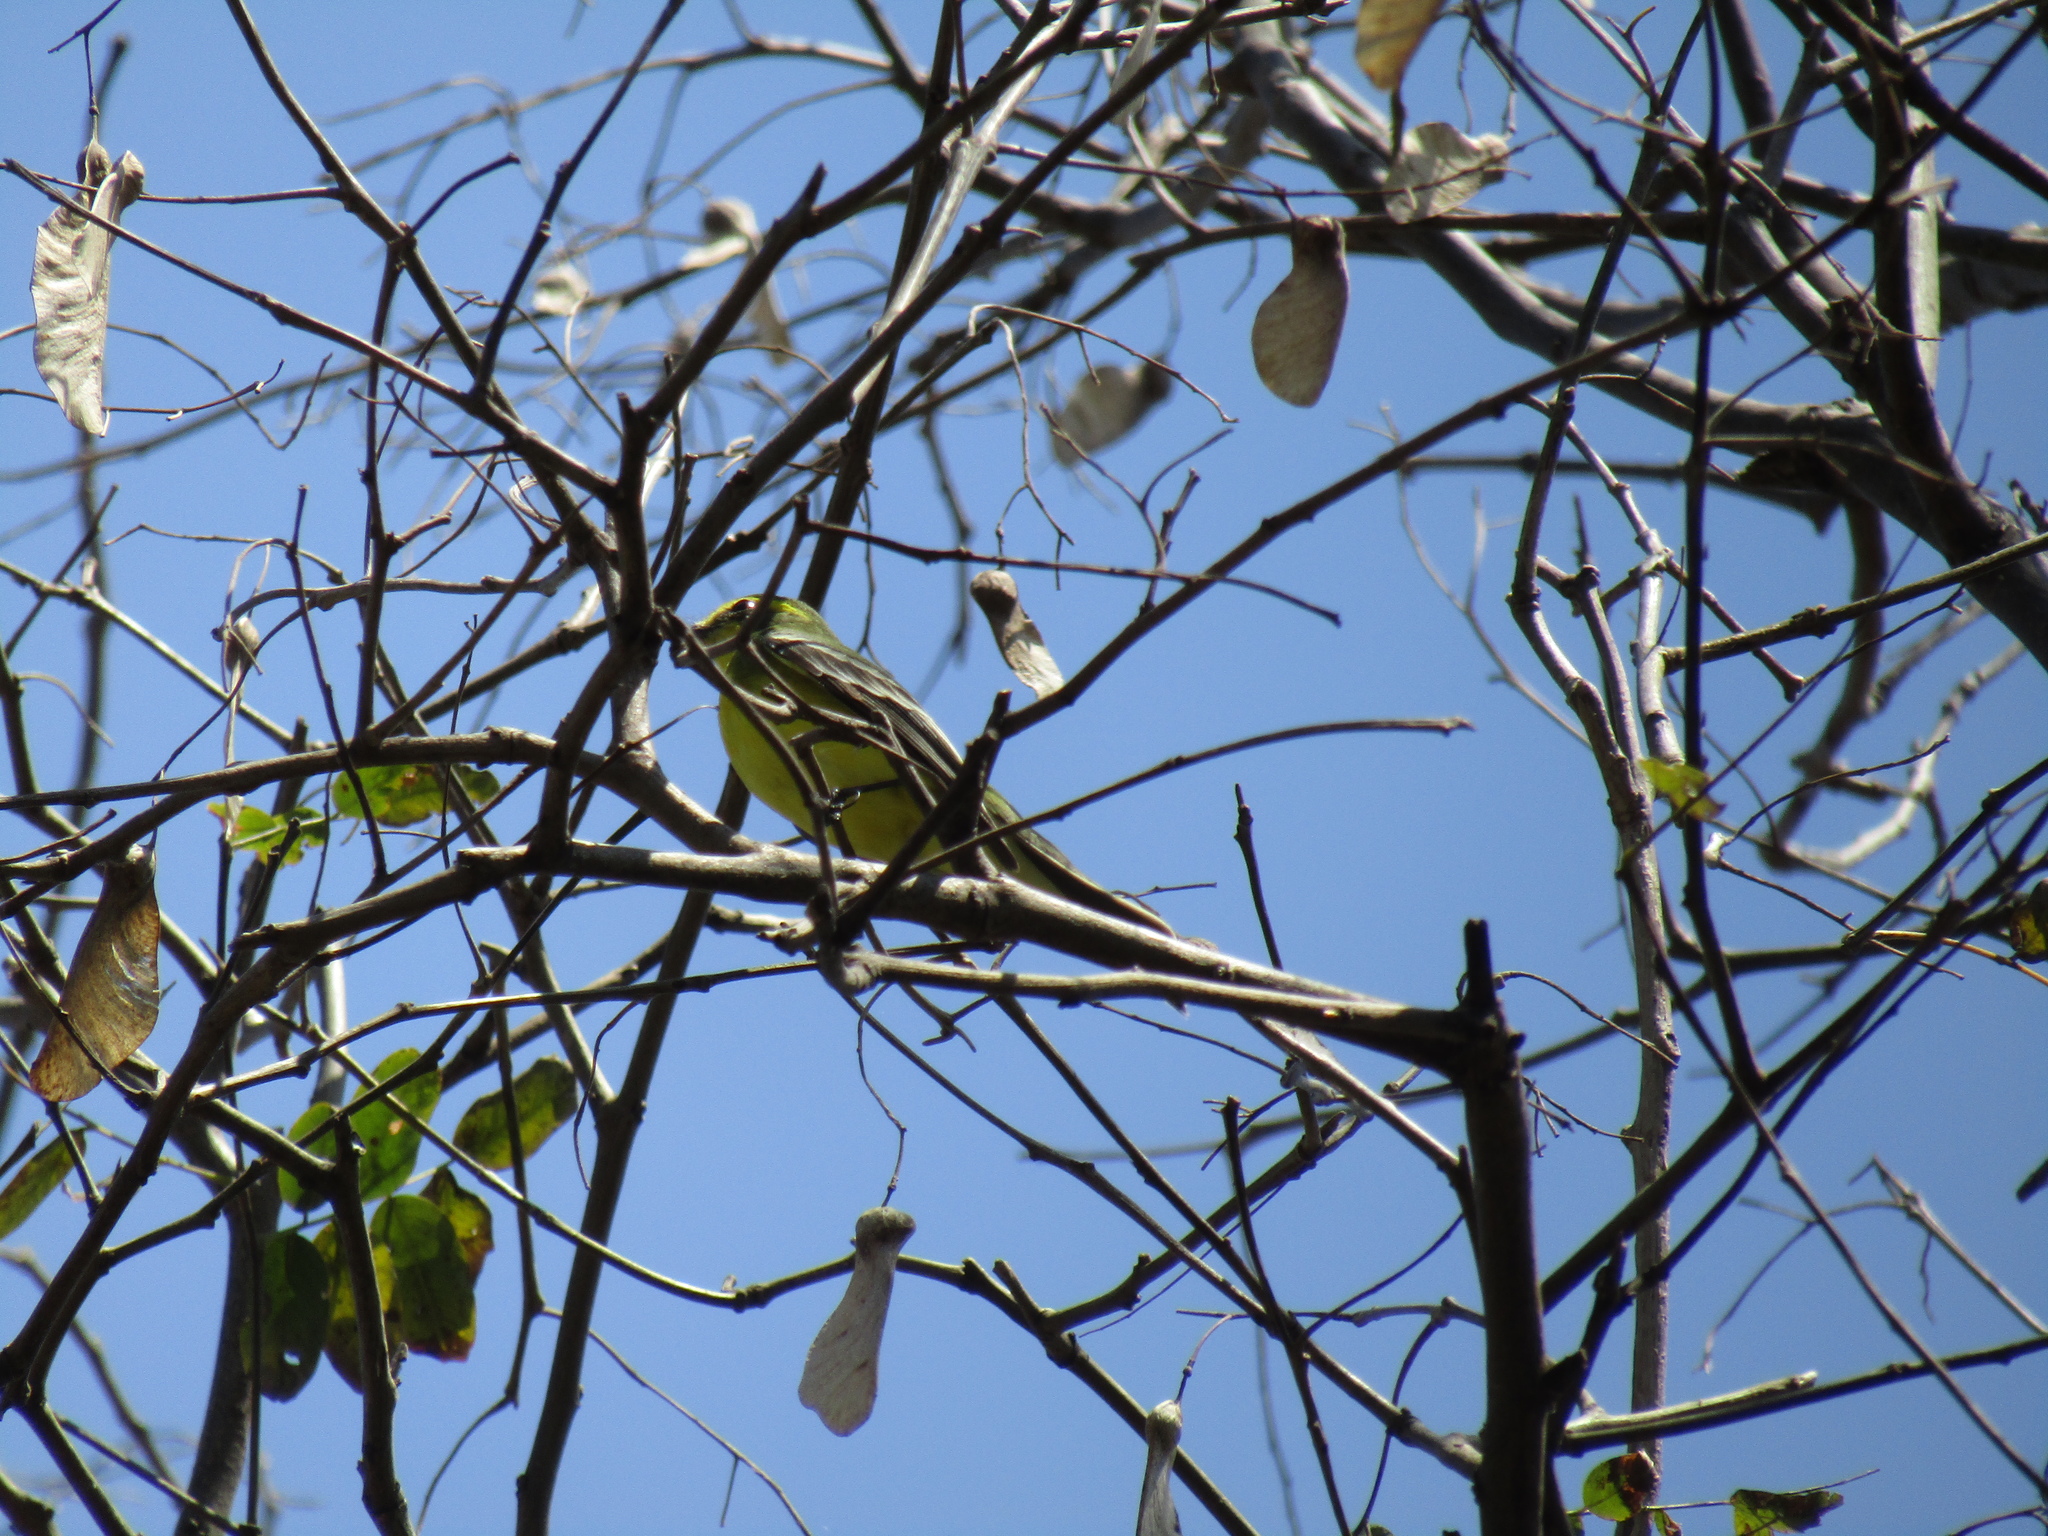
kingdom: Animalia
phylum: Chordata
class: Aves
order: Passeriformes
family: Tyrannidae
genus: Satrapa
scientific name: Satrapa icterophrys
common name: Yellow-browed tyrant
